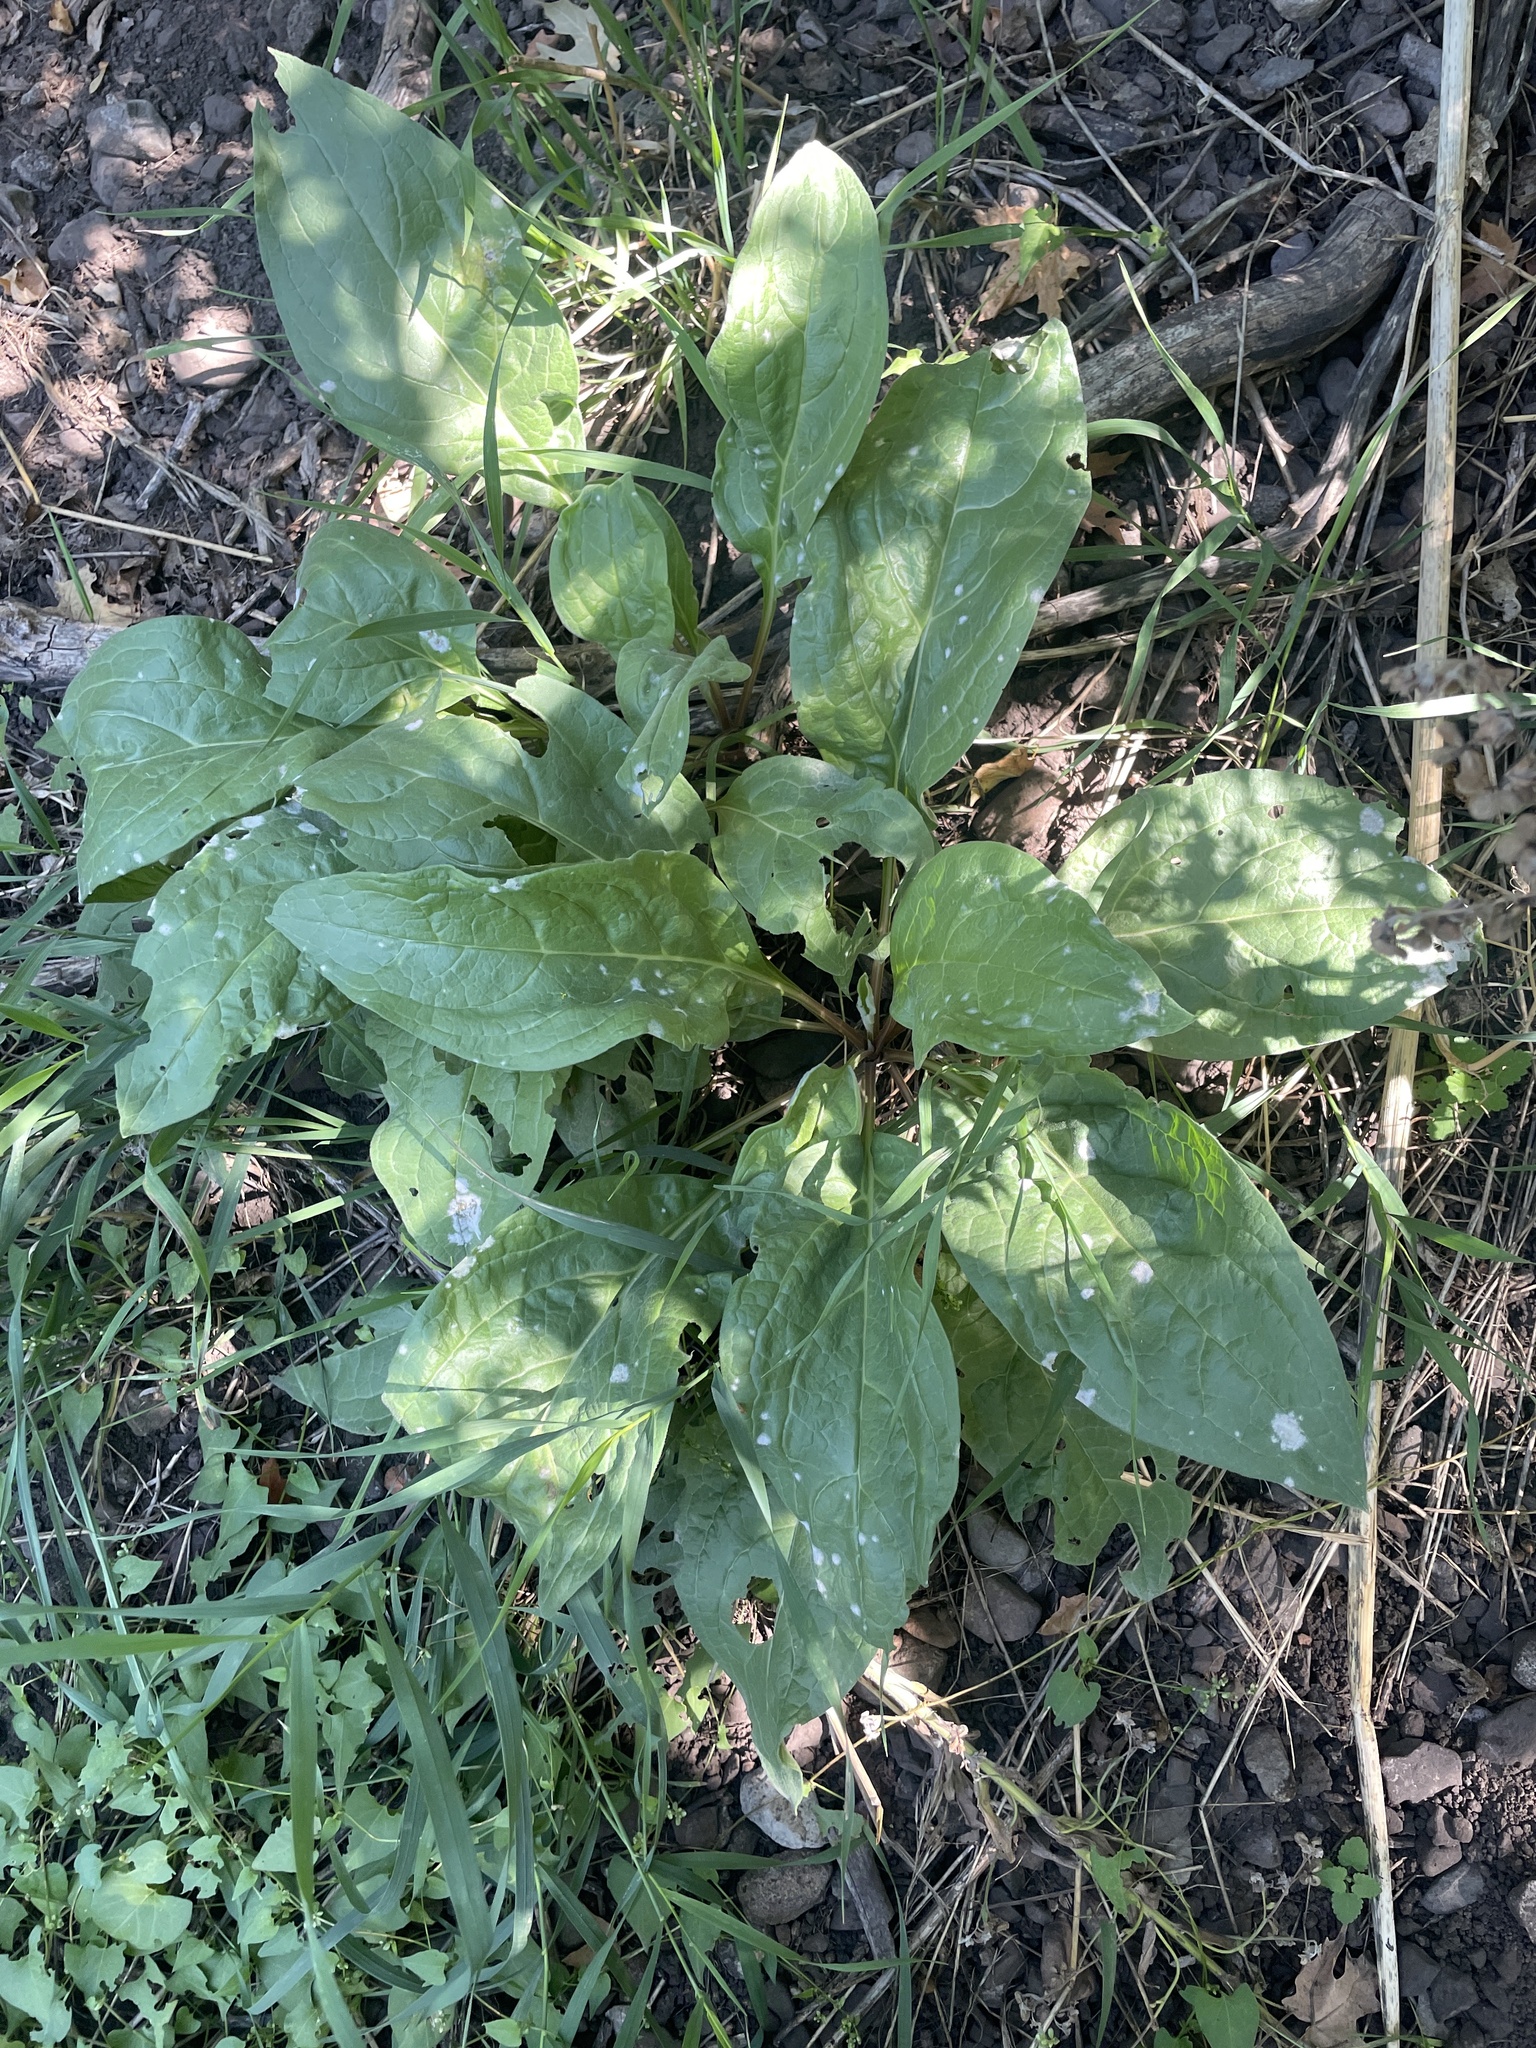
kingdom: Fungi
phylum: Ascomycota
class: Leotiomycetes
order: Helotiales
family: Erysiphaceae
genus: Golovinomyces
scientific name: Golovinomyces cynoglossi
